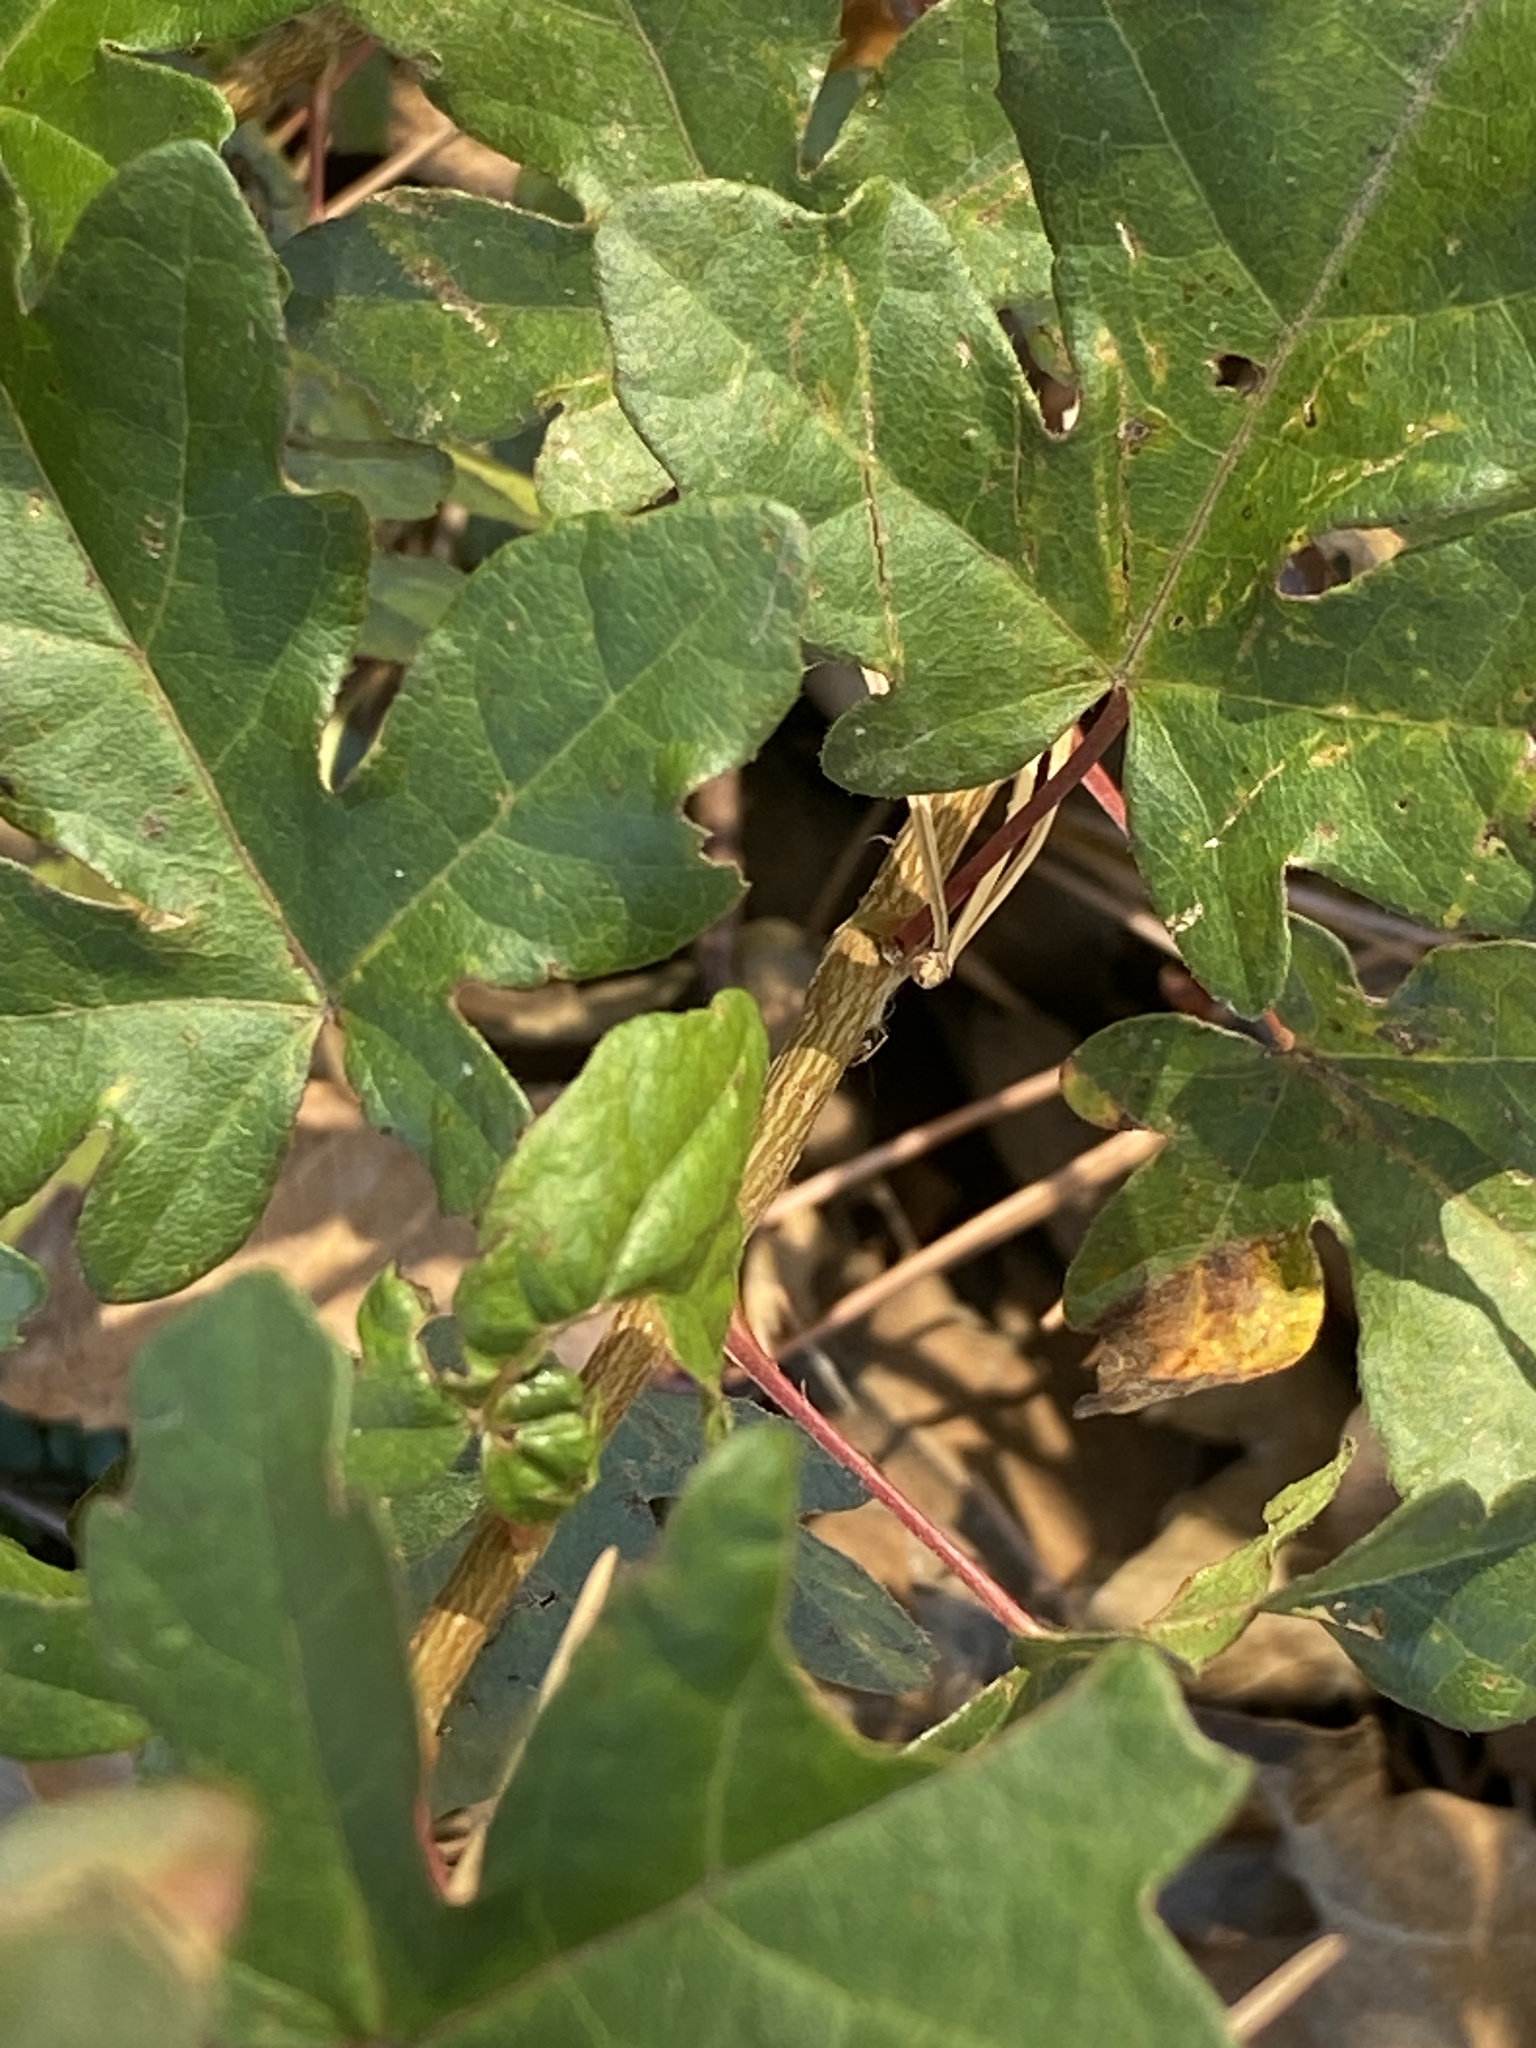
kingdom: Plantae
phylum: Tracheophyta
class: Magnoliopsida
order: Sapindales
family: Sapindaceae
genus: Acer
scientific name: Acer campestre
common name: Field maple
